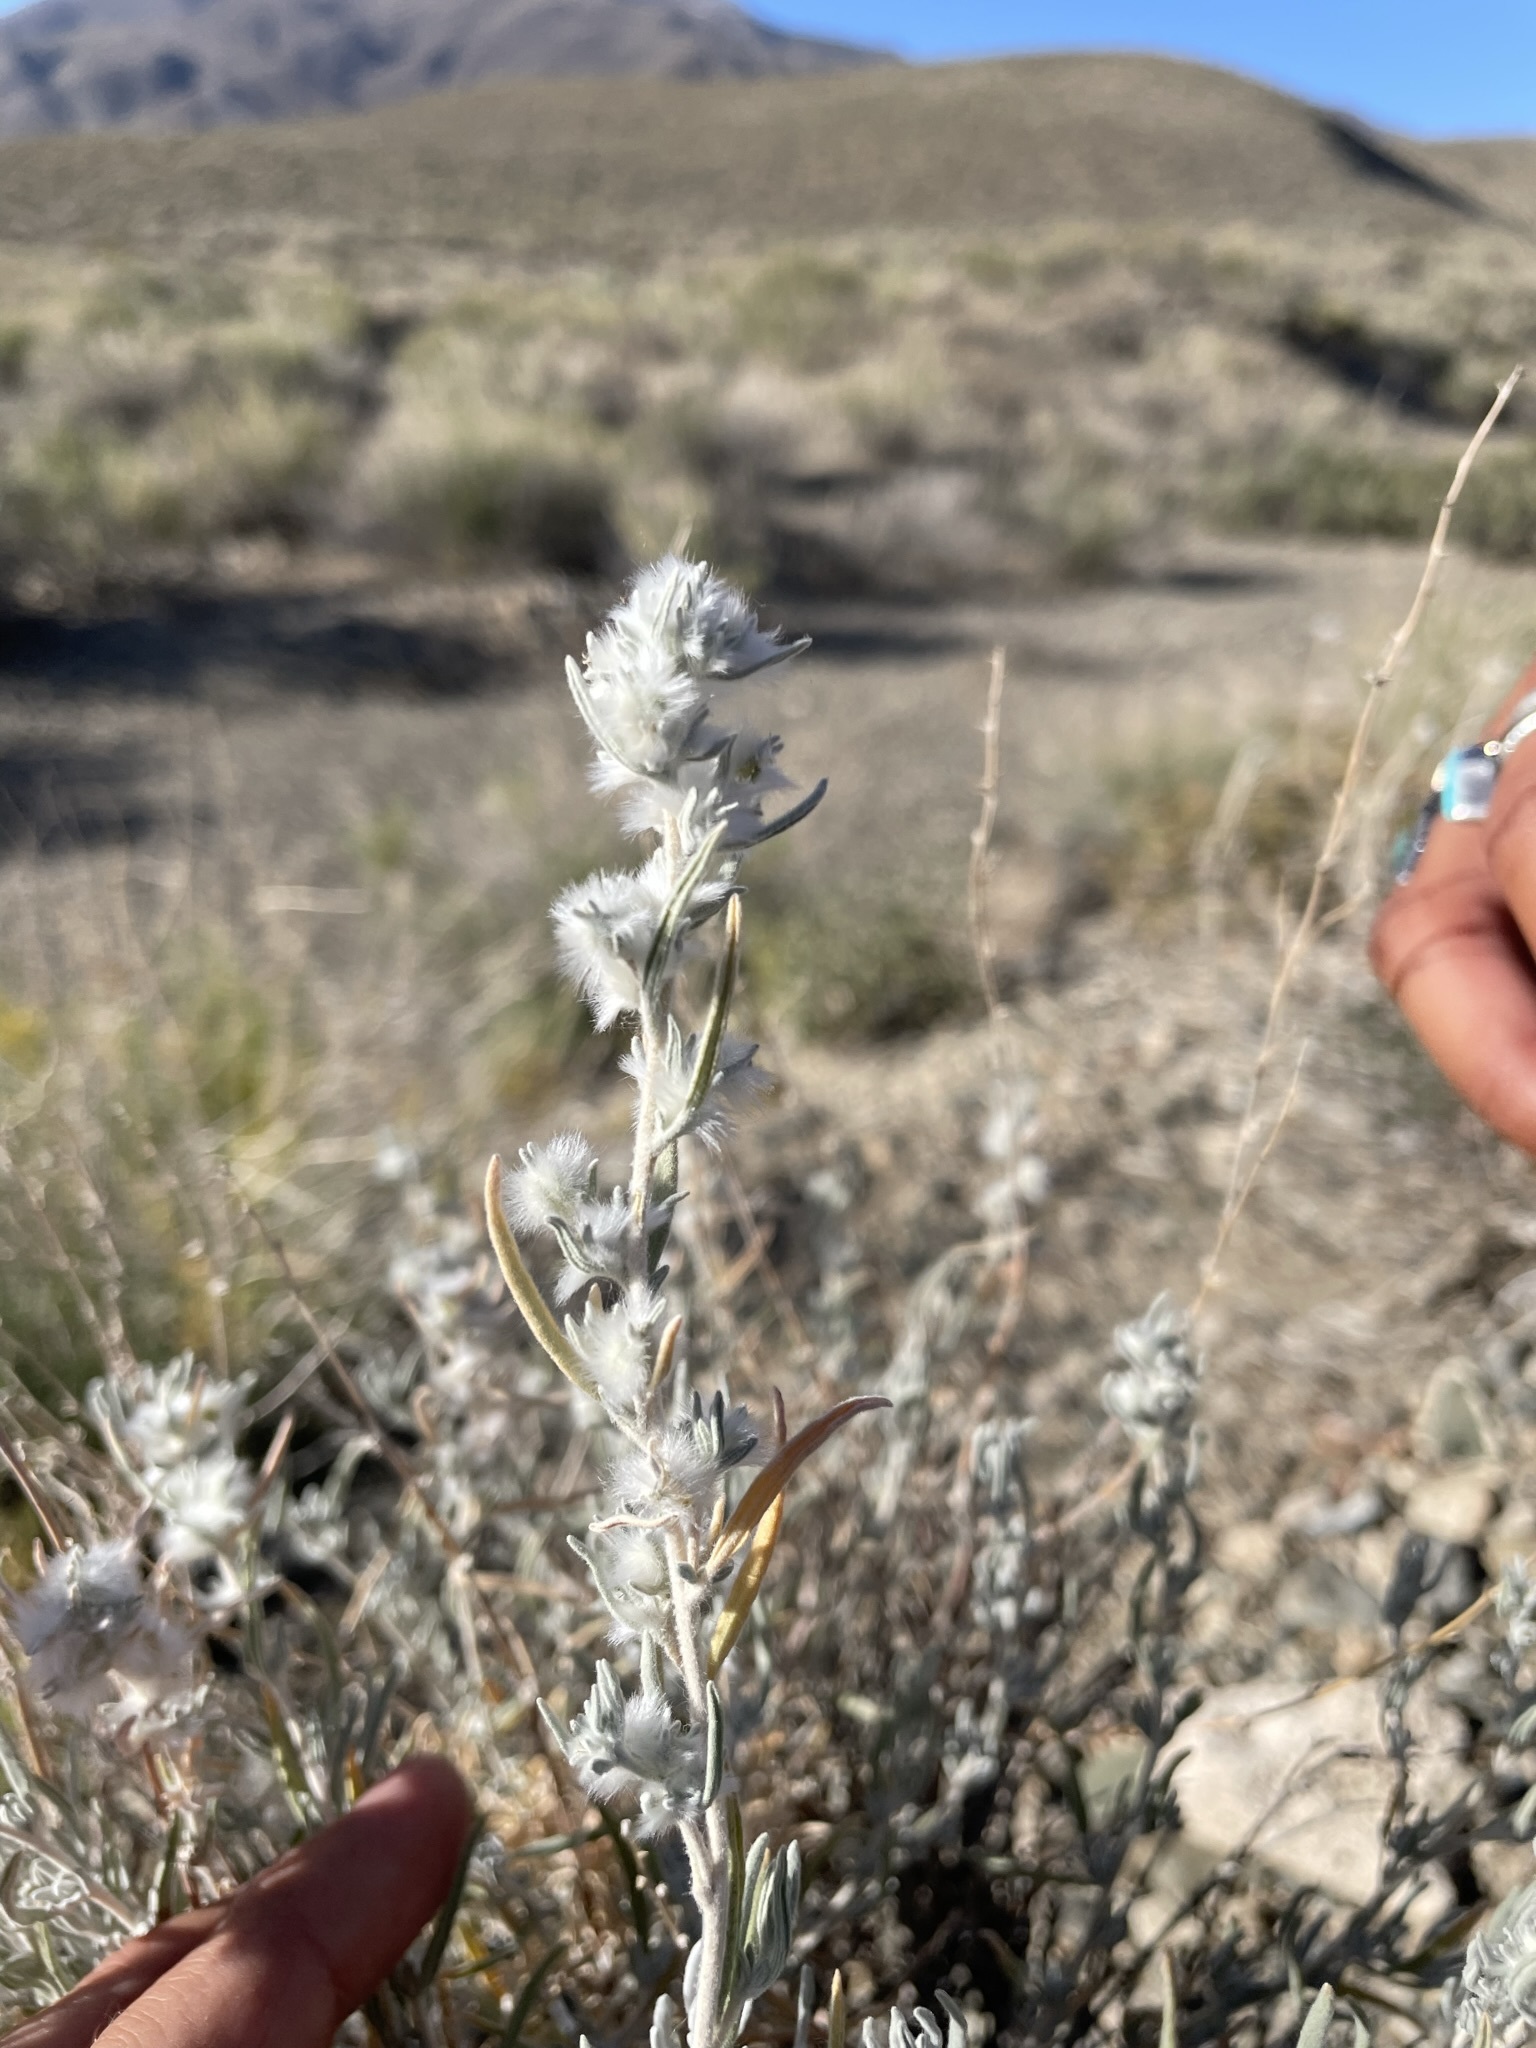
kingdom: Plantae
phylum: Tracheophyta
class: Magnoliopsida
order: Caryophyllales
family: Amaranthaceae
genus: Krascheninnikovia
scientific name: Krascheninnikovia lanata
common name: Winterfat
